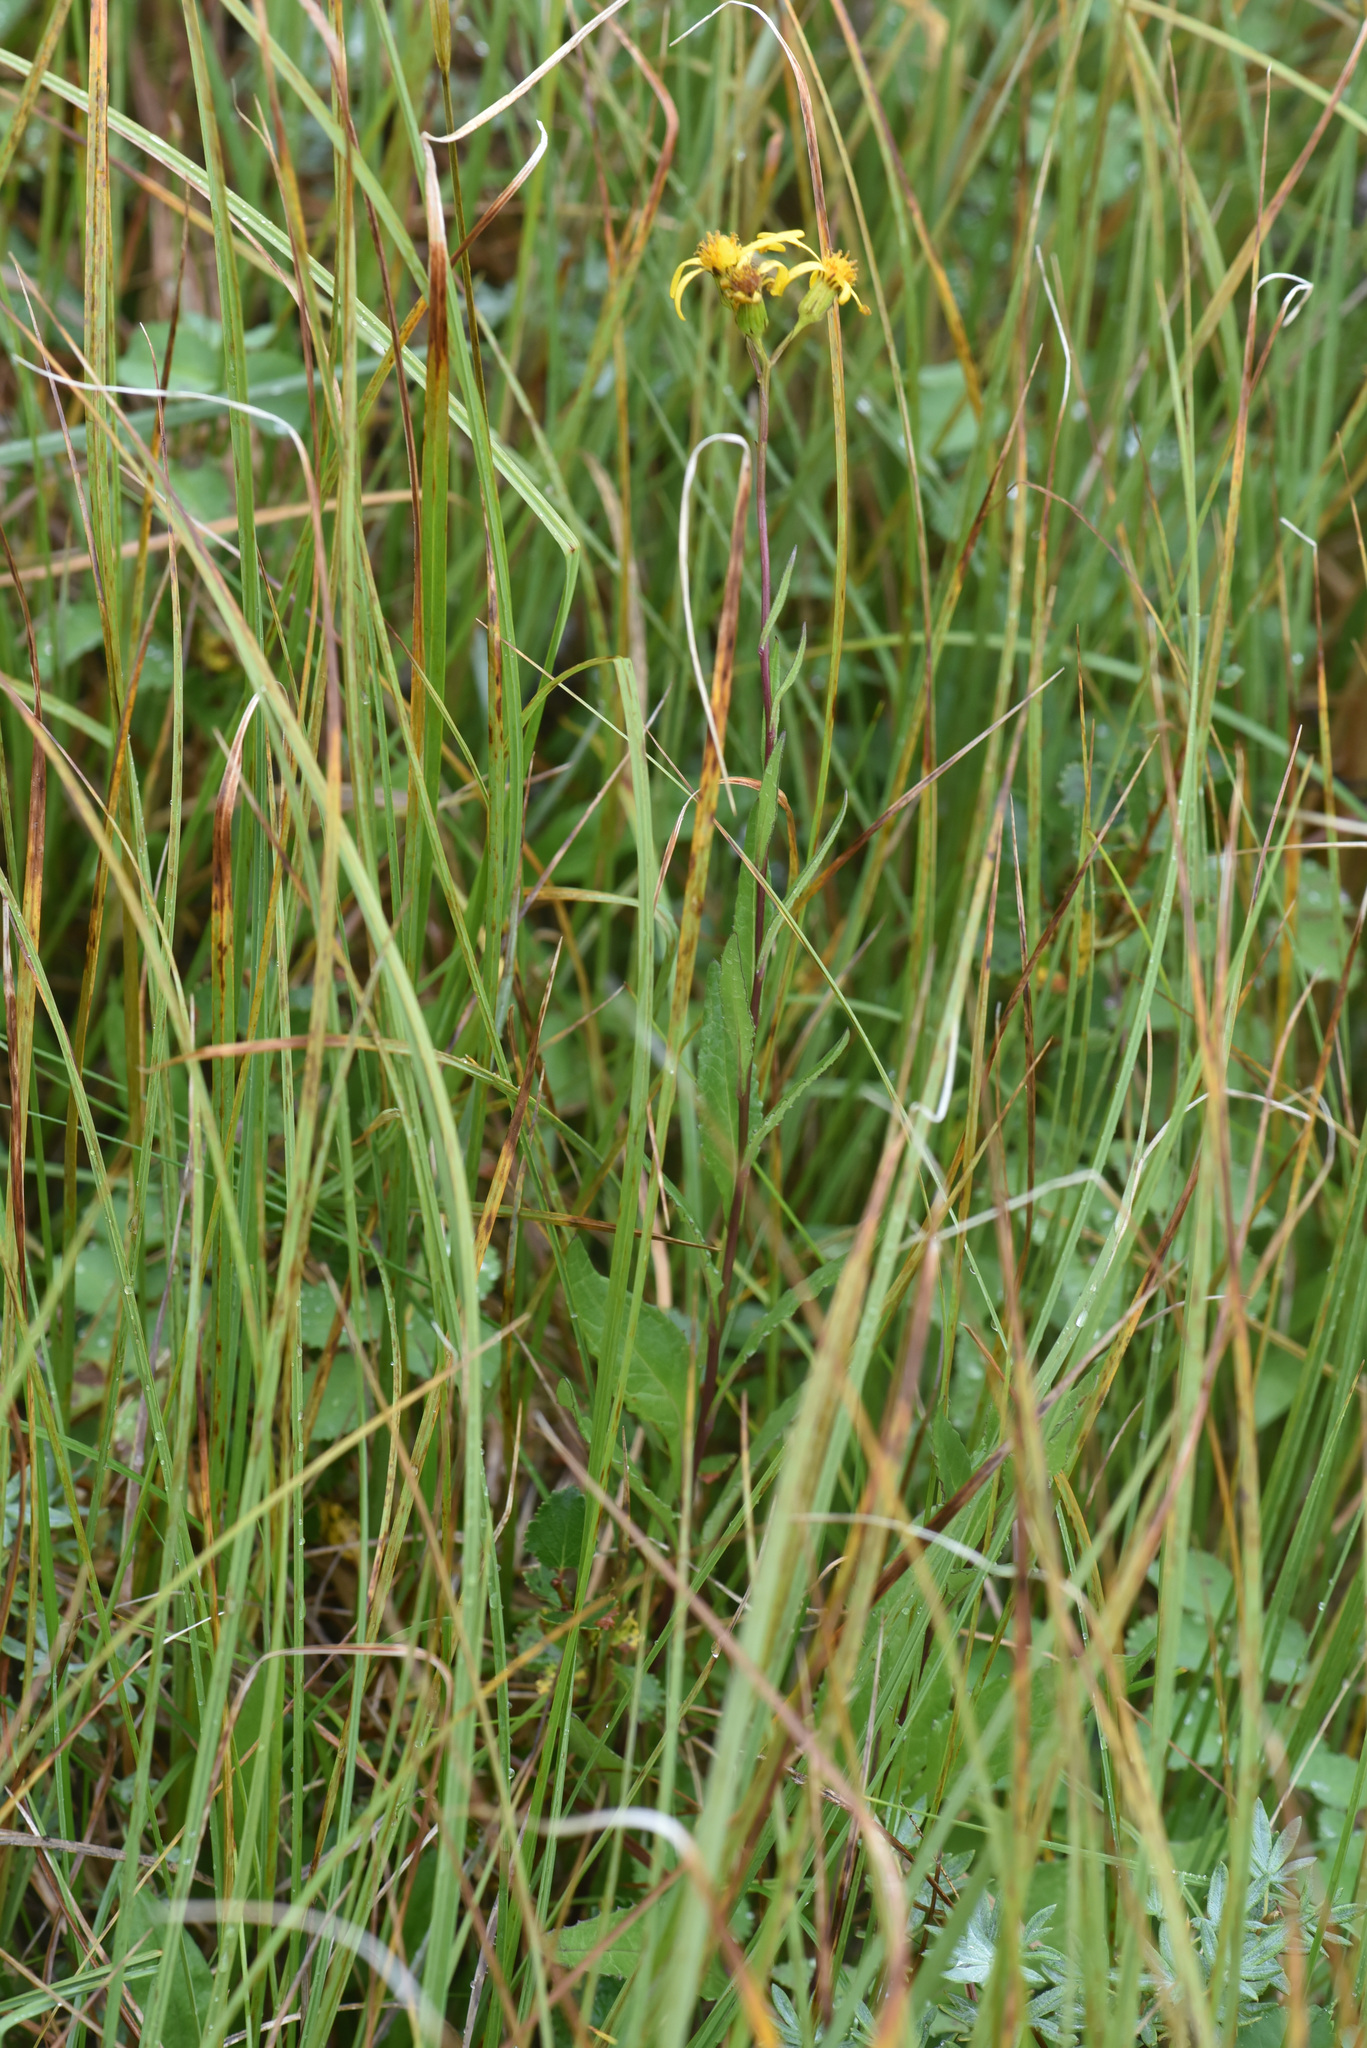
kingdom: Plantae
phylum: Tracheophyta
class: Magnoliopsida
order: Asterales
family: Asteraceae
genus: Senecio
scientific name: Senecio lugens
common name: Black-tip groundsel
